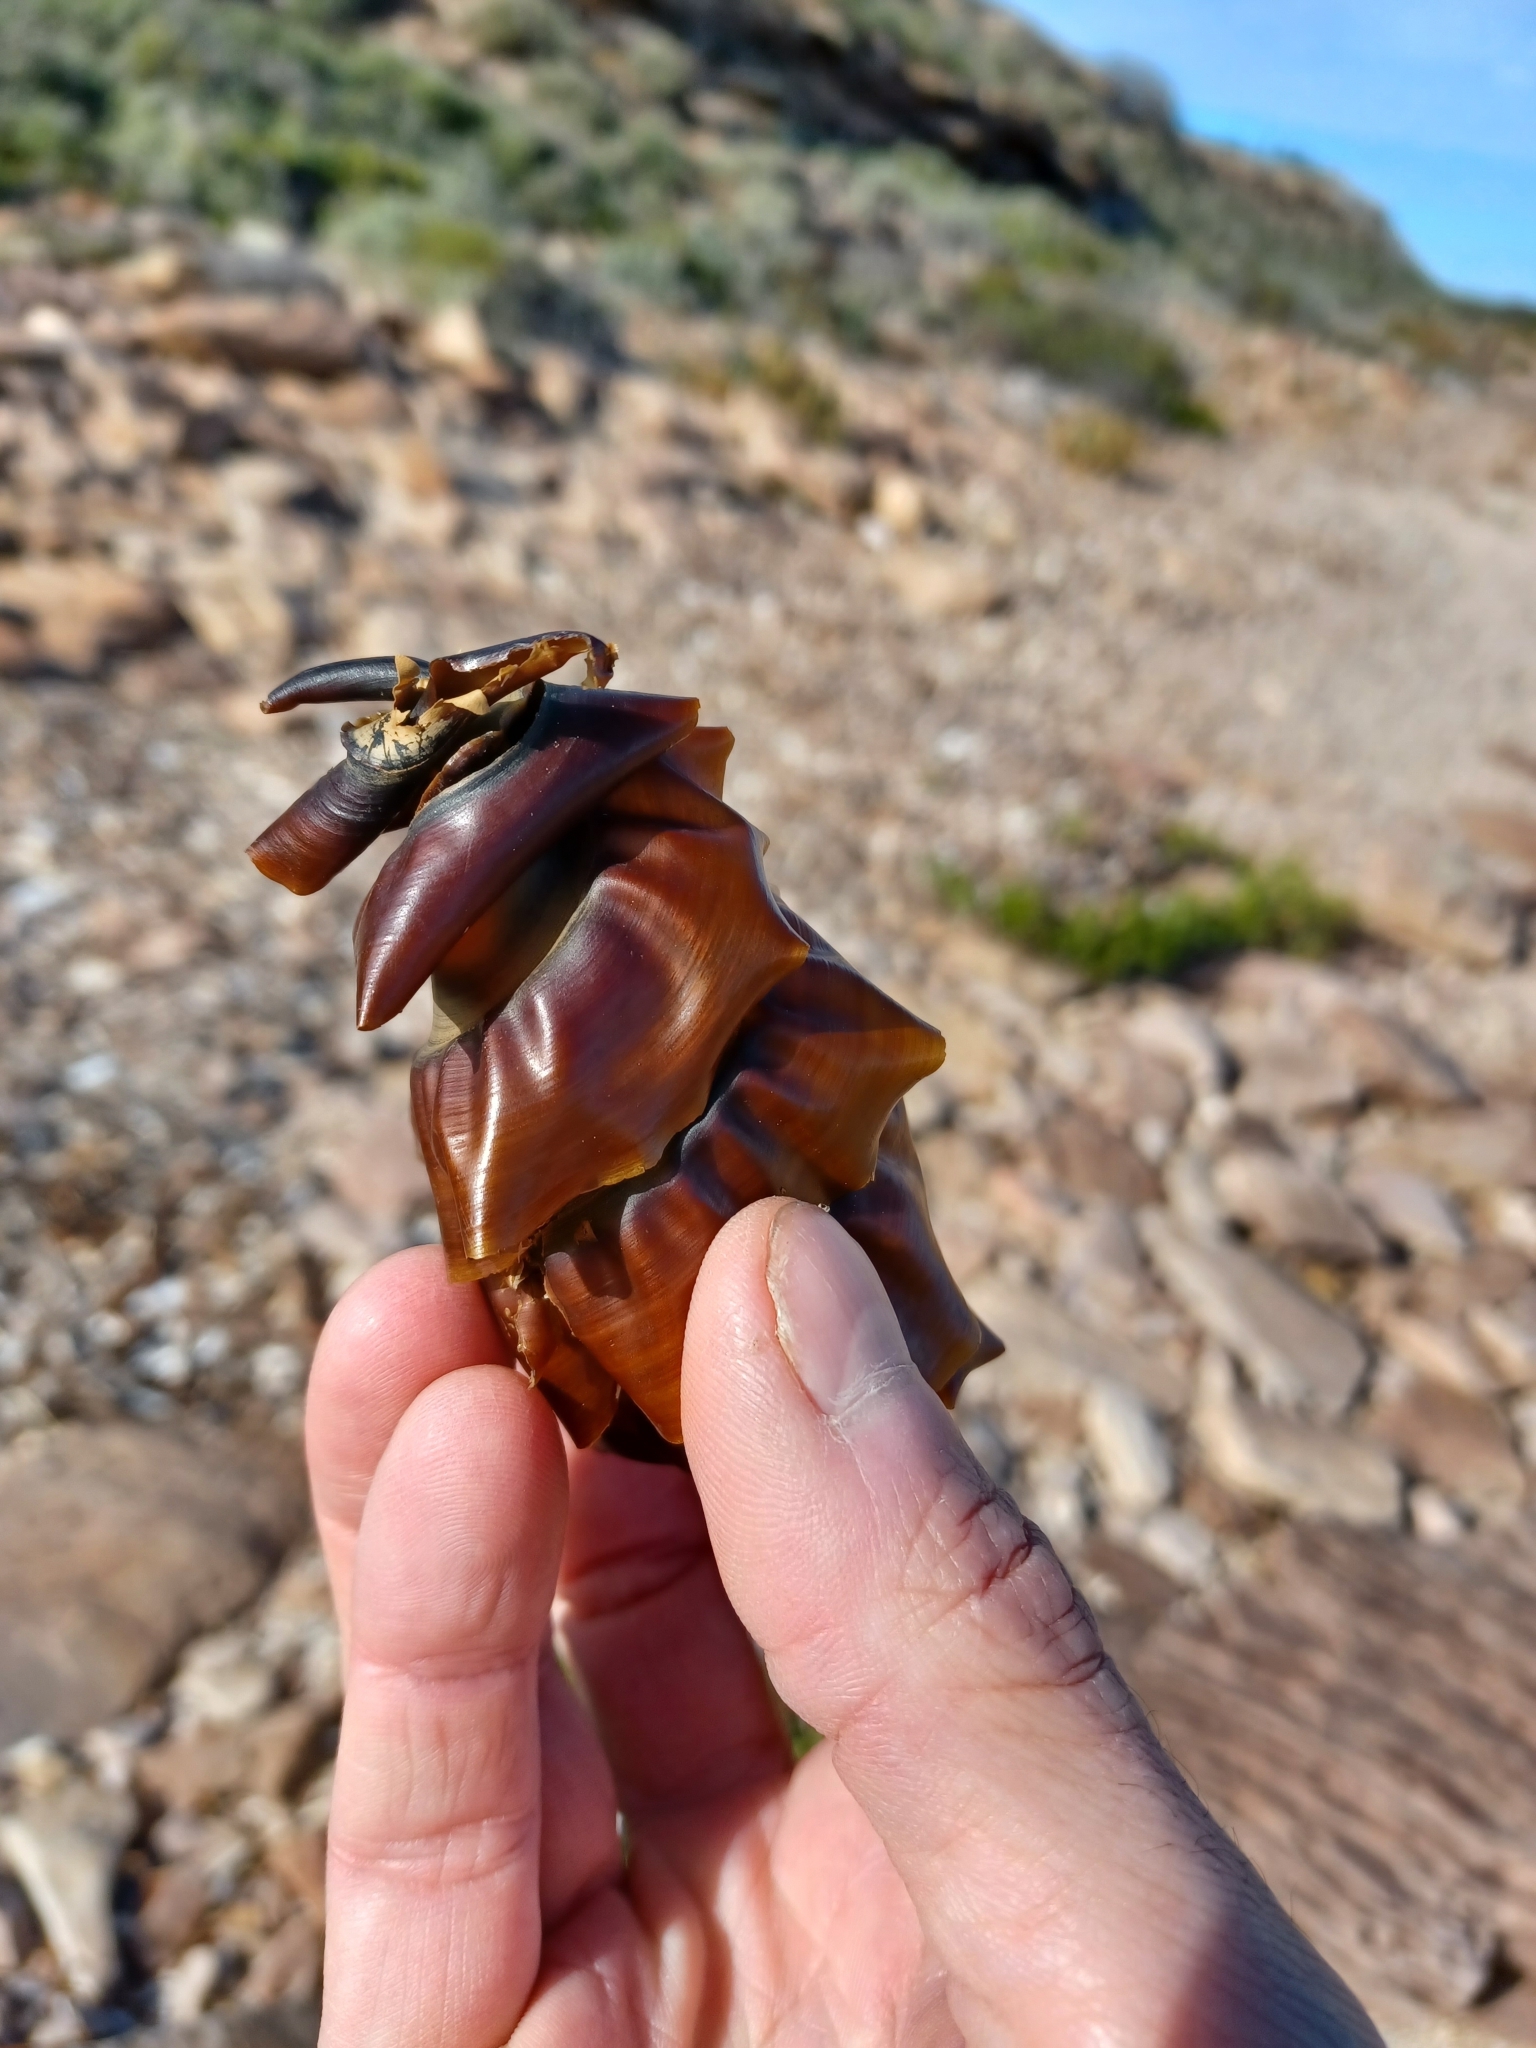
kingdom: Animalia
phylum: Chordata
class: Elasmobranchii
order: Heterodontiformes
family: Heterodontidae
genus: Heterodontus
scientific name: Heterodontus portusjacksoni
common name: Port jackson shark
